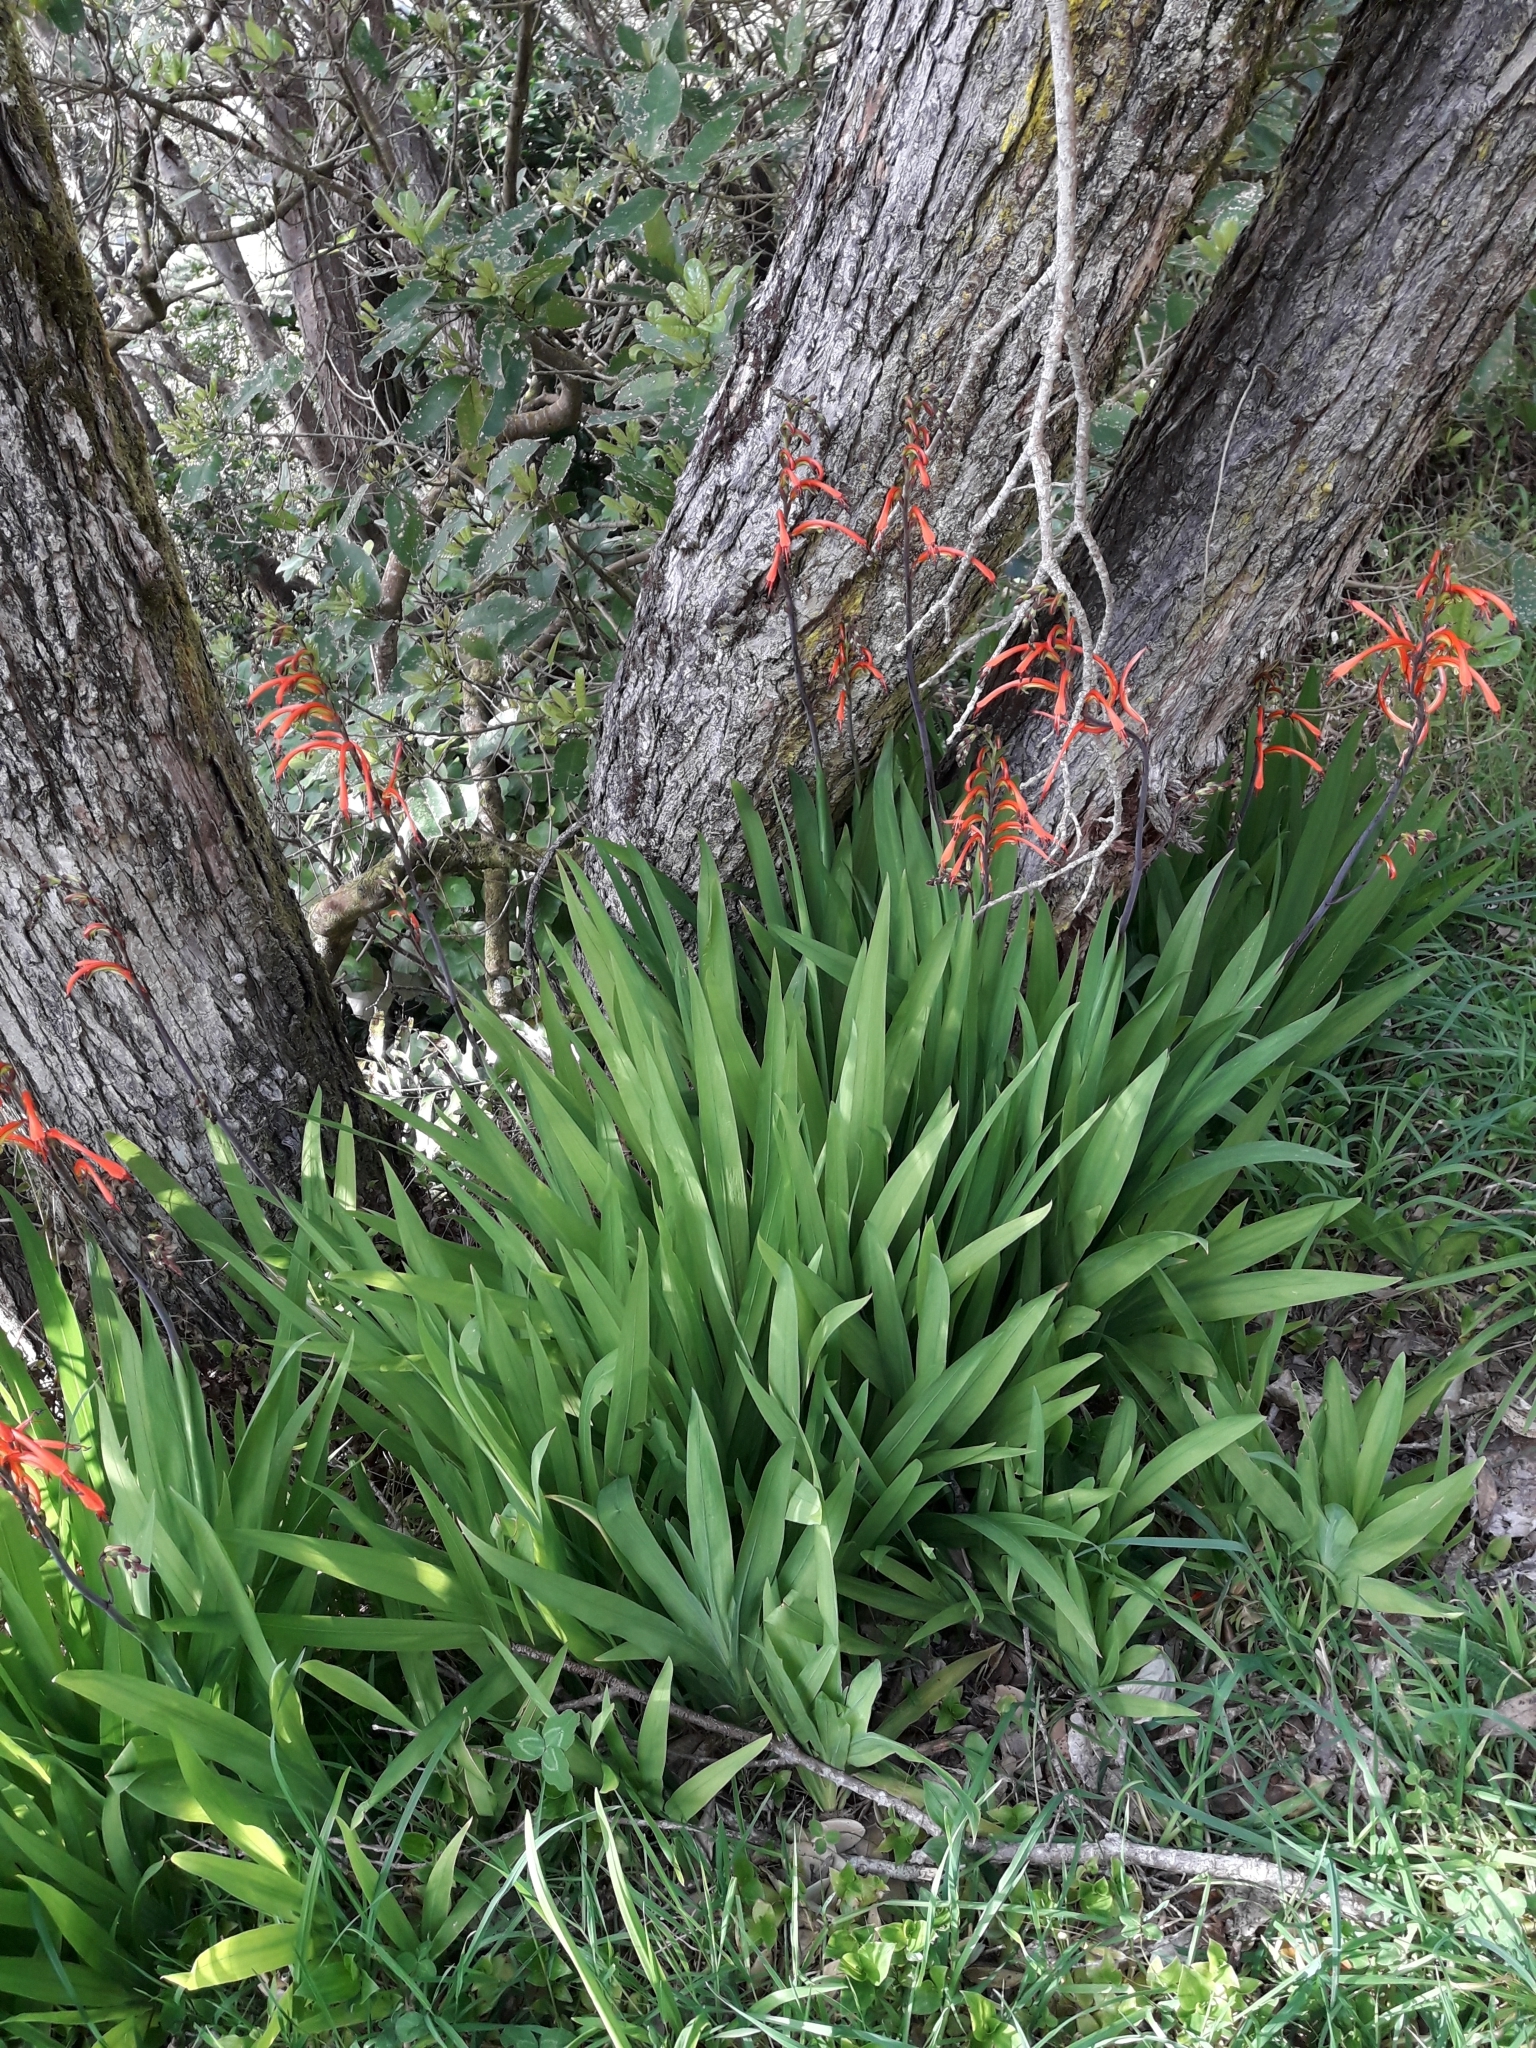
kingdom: Plantae
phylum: Tracheophyta
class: Liliopsida
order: Asparagales
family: Iridaceae
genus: Chasmanthe
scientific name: Chasmanthe bicolor
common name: Bicolor cobra lily
